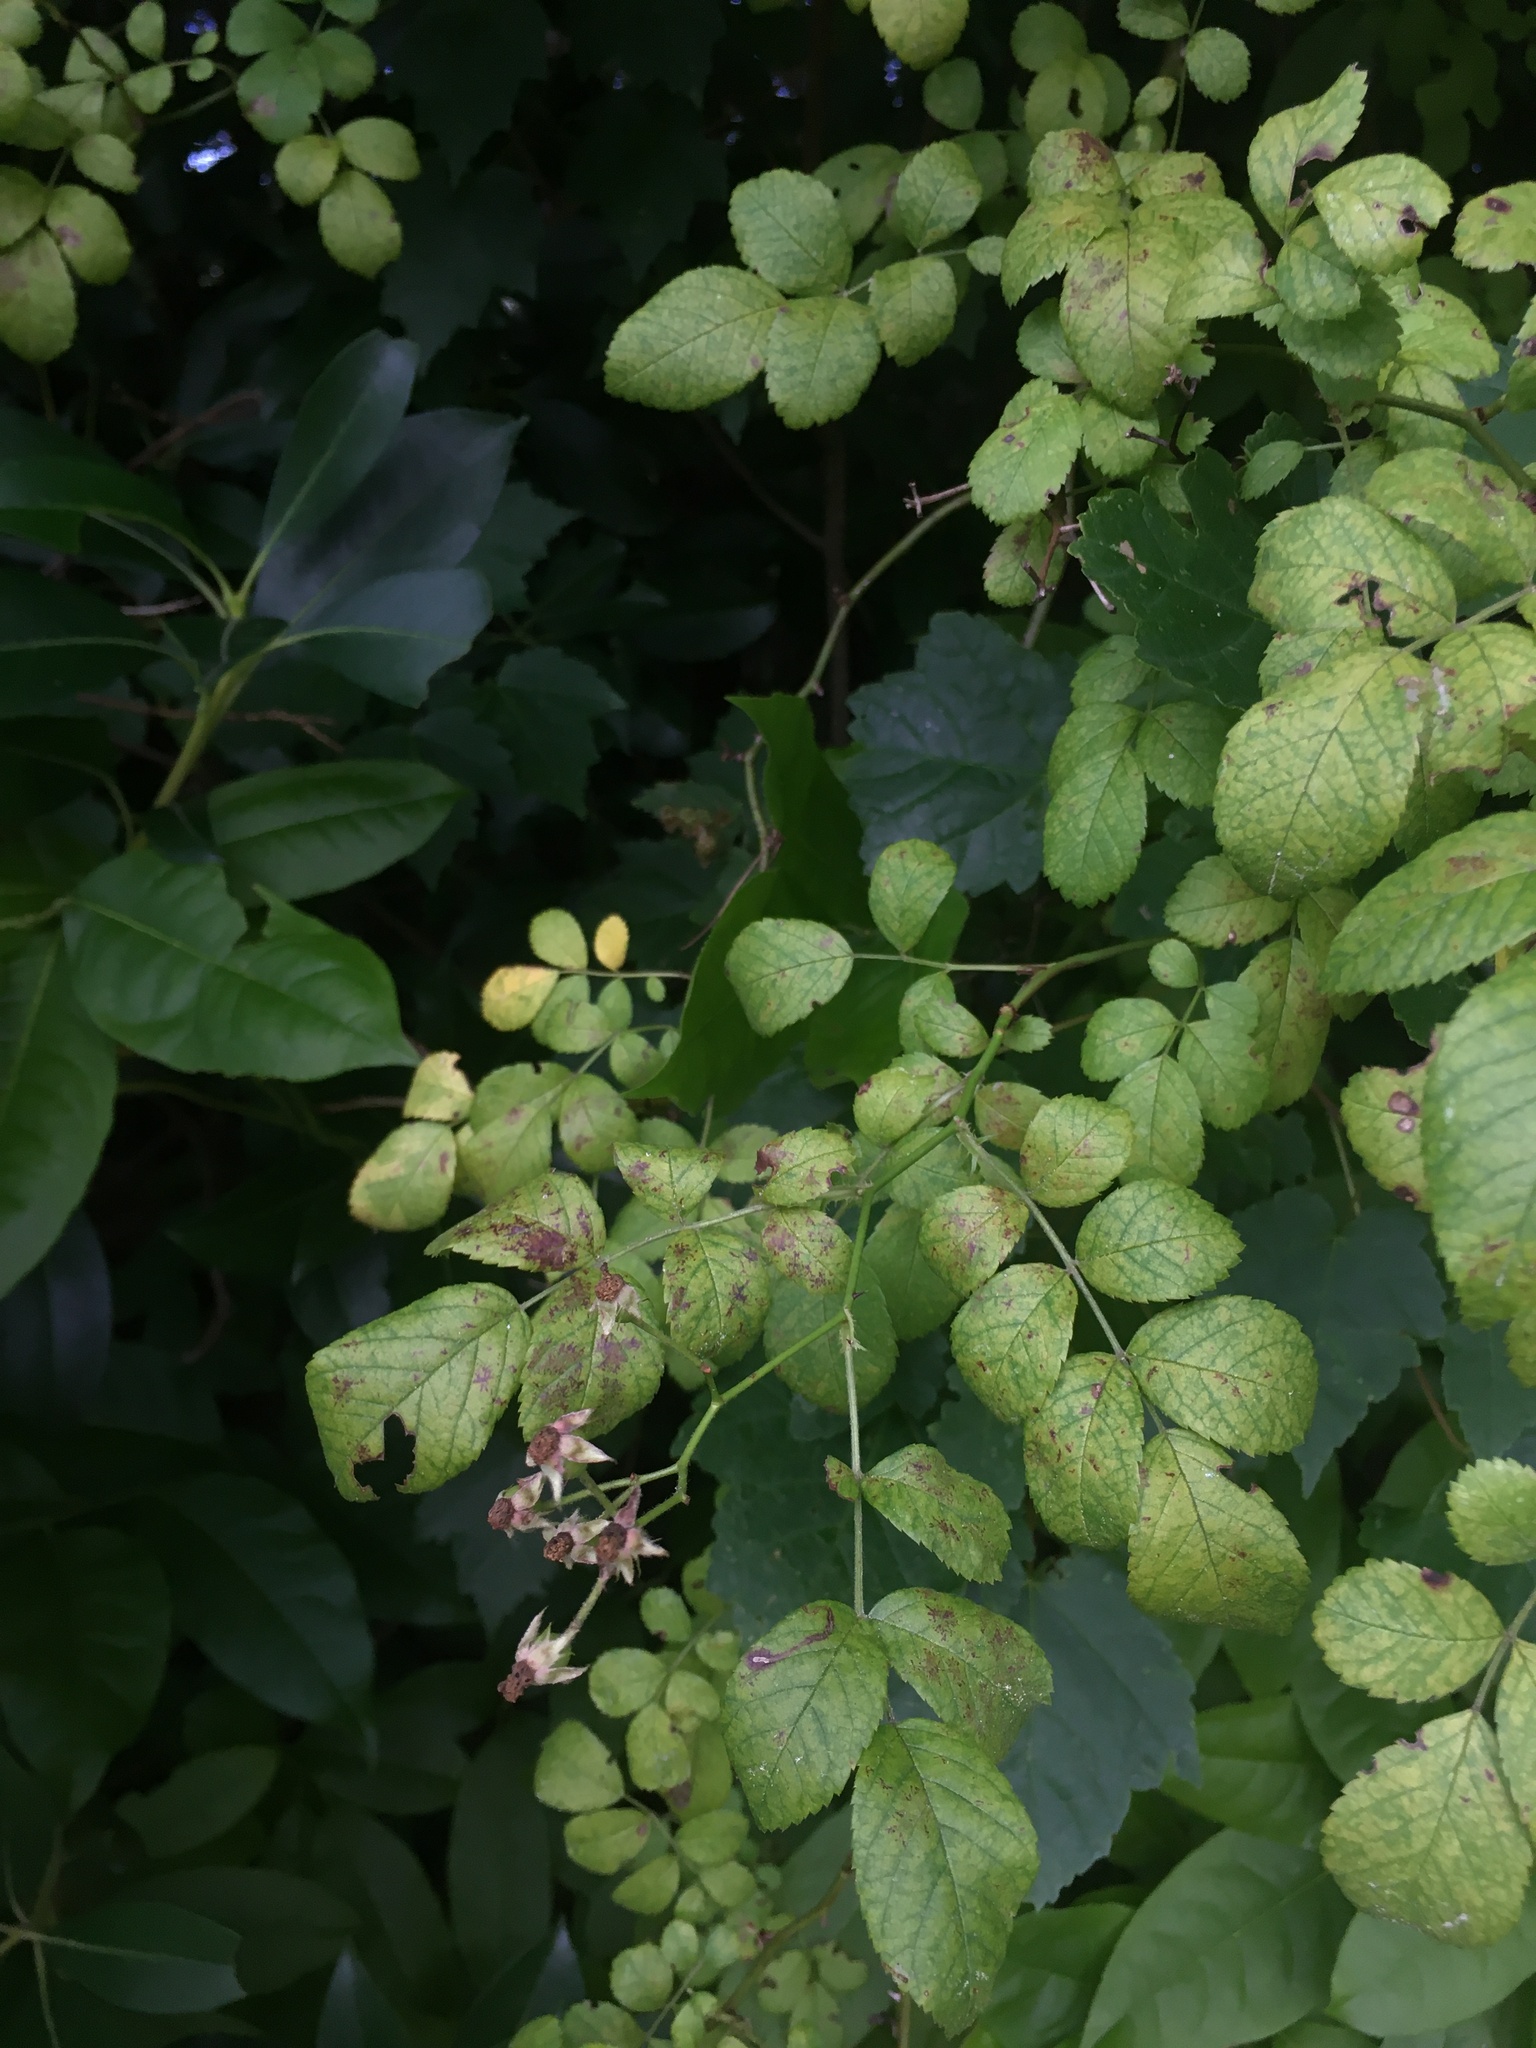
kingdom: Plantae
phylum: Tracheophyta
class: Magnoliopsida
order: Rosales
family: Rosaceae
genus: Rosa
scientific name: Rosa multiflora
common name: Multiflora rose
